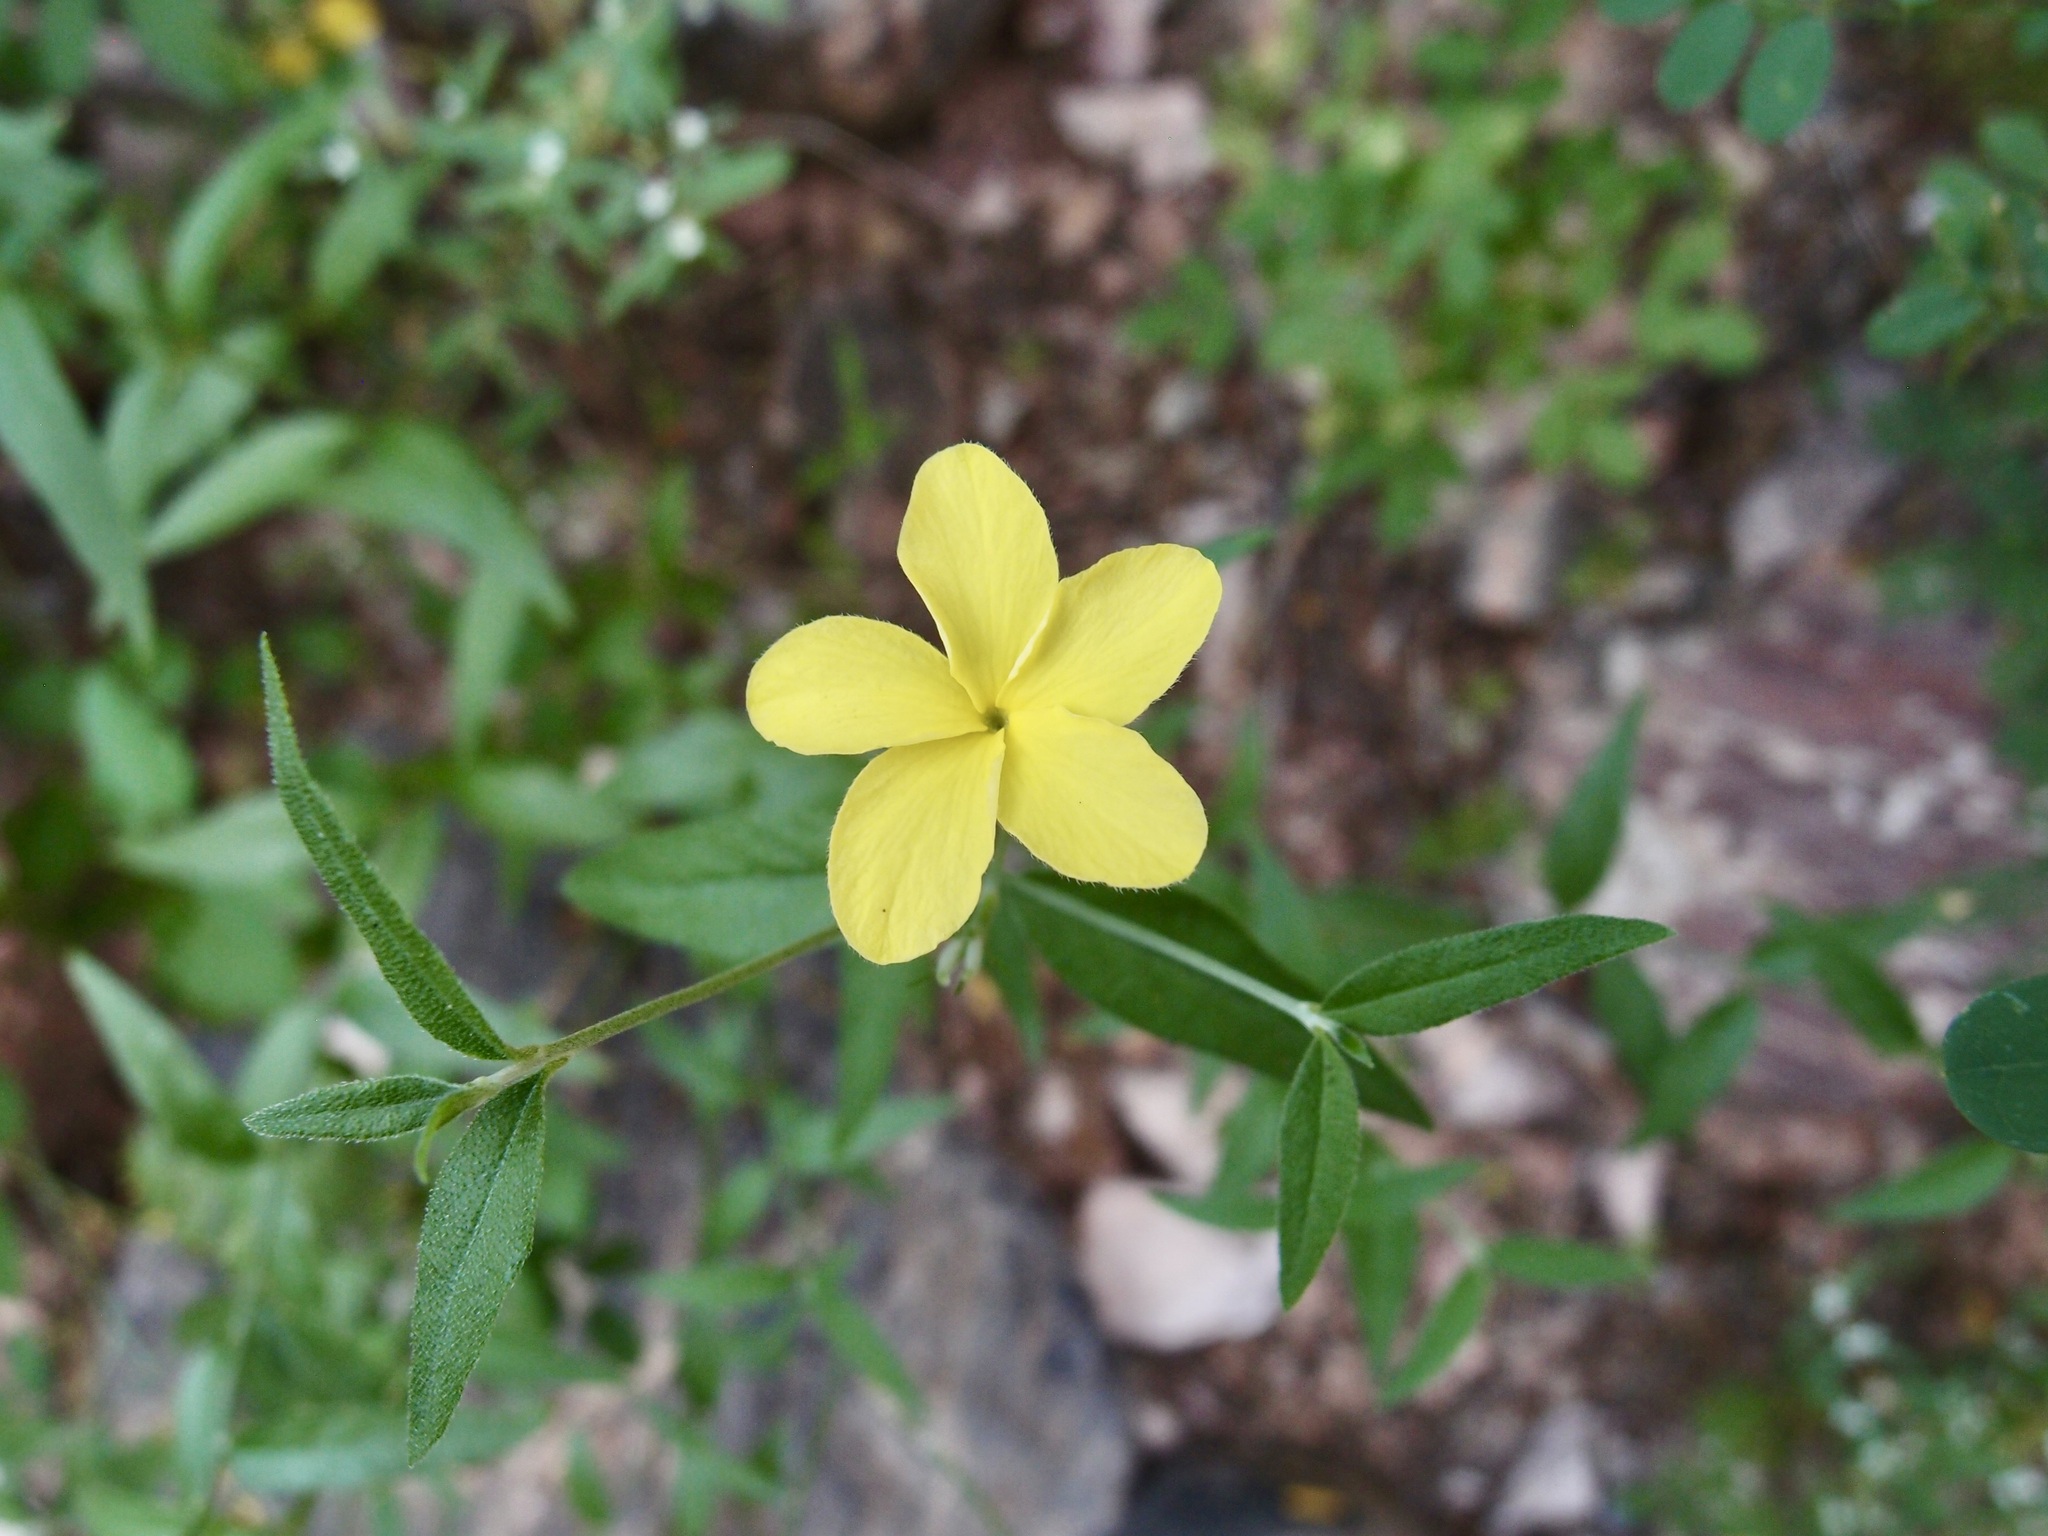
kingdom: Plantae
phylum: Tracheophyta
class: Magnoliopsida
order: Gentianales
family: Apocynaceae
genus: Haplophyton
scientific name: Haplophyton crooksii
